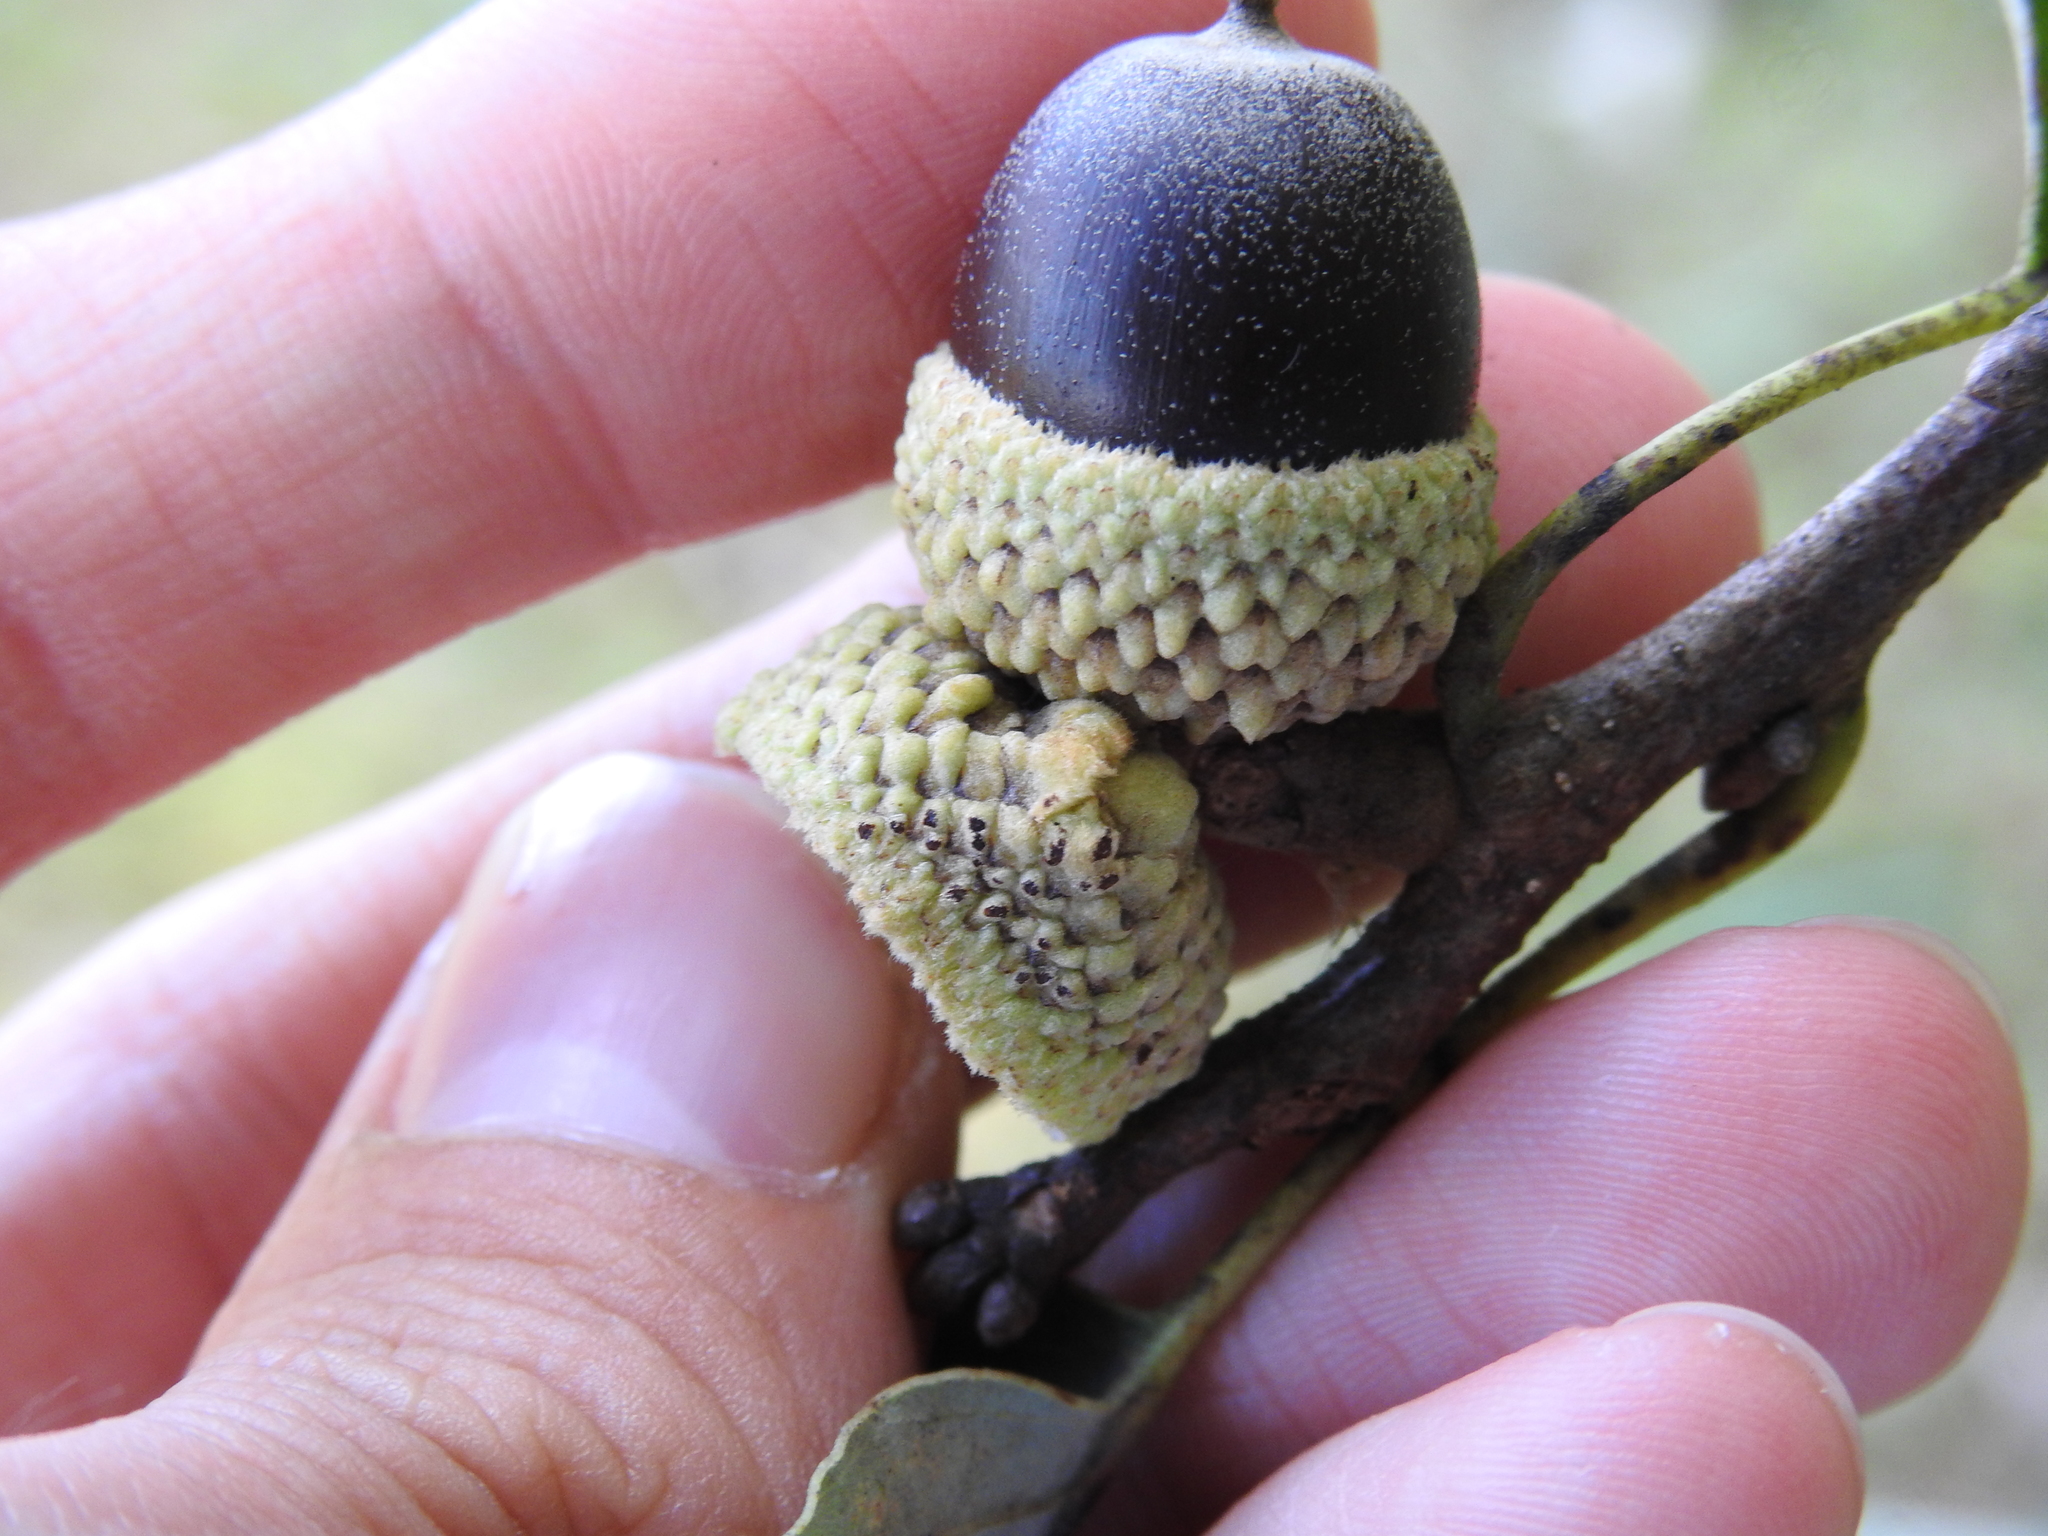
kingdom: Animalia
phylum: Arthropoda
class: Insecta
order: Hymenoptera
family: Cynipidae
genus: Callirhytis
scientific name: Callirhytis glandium
